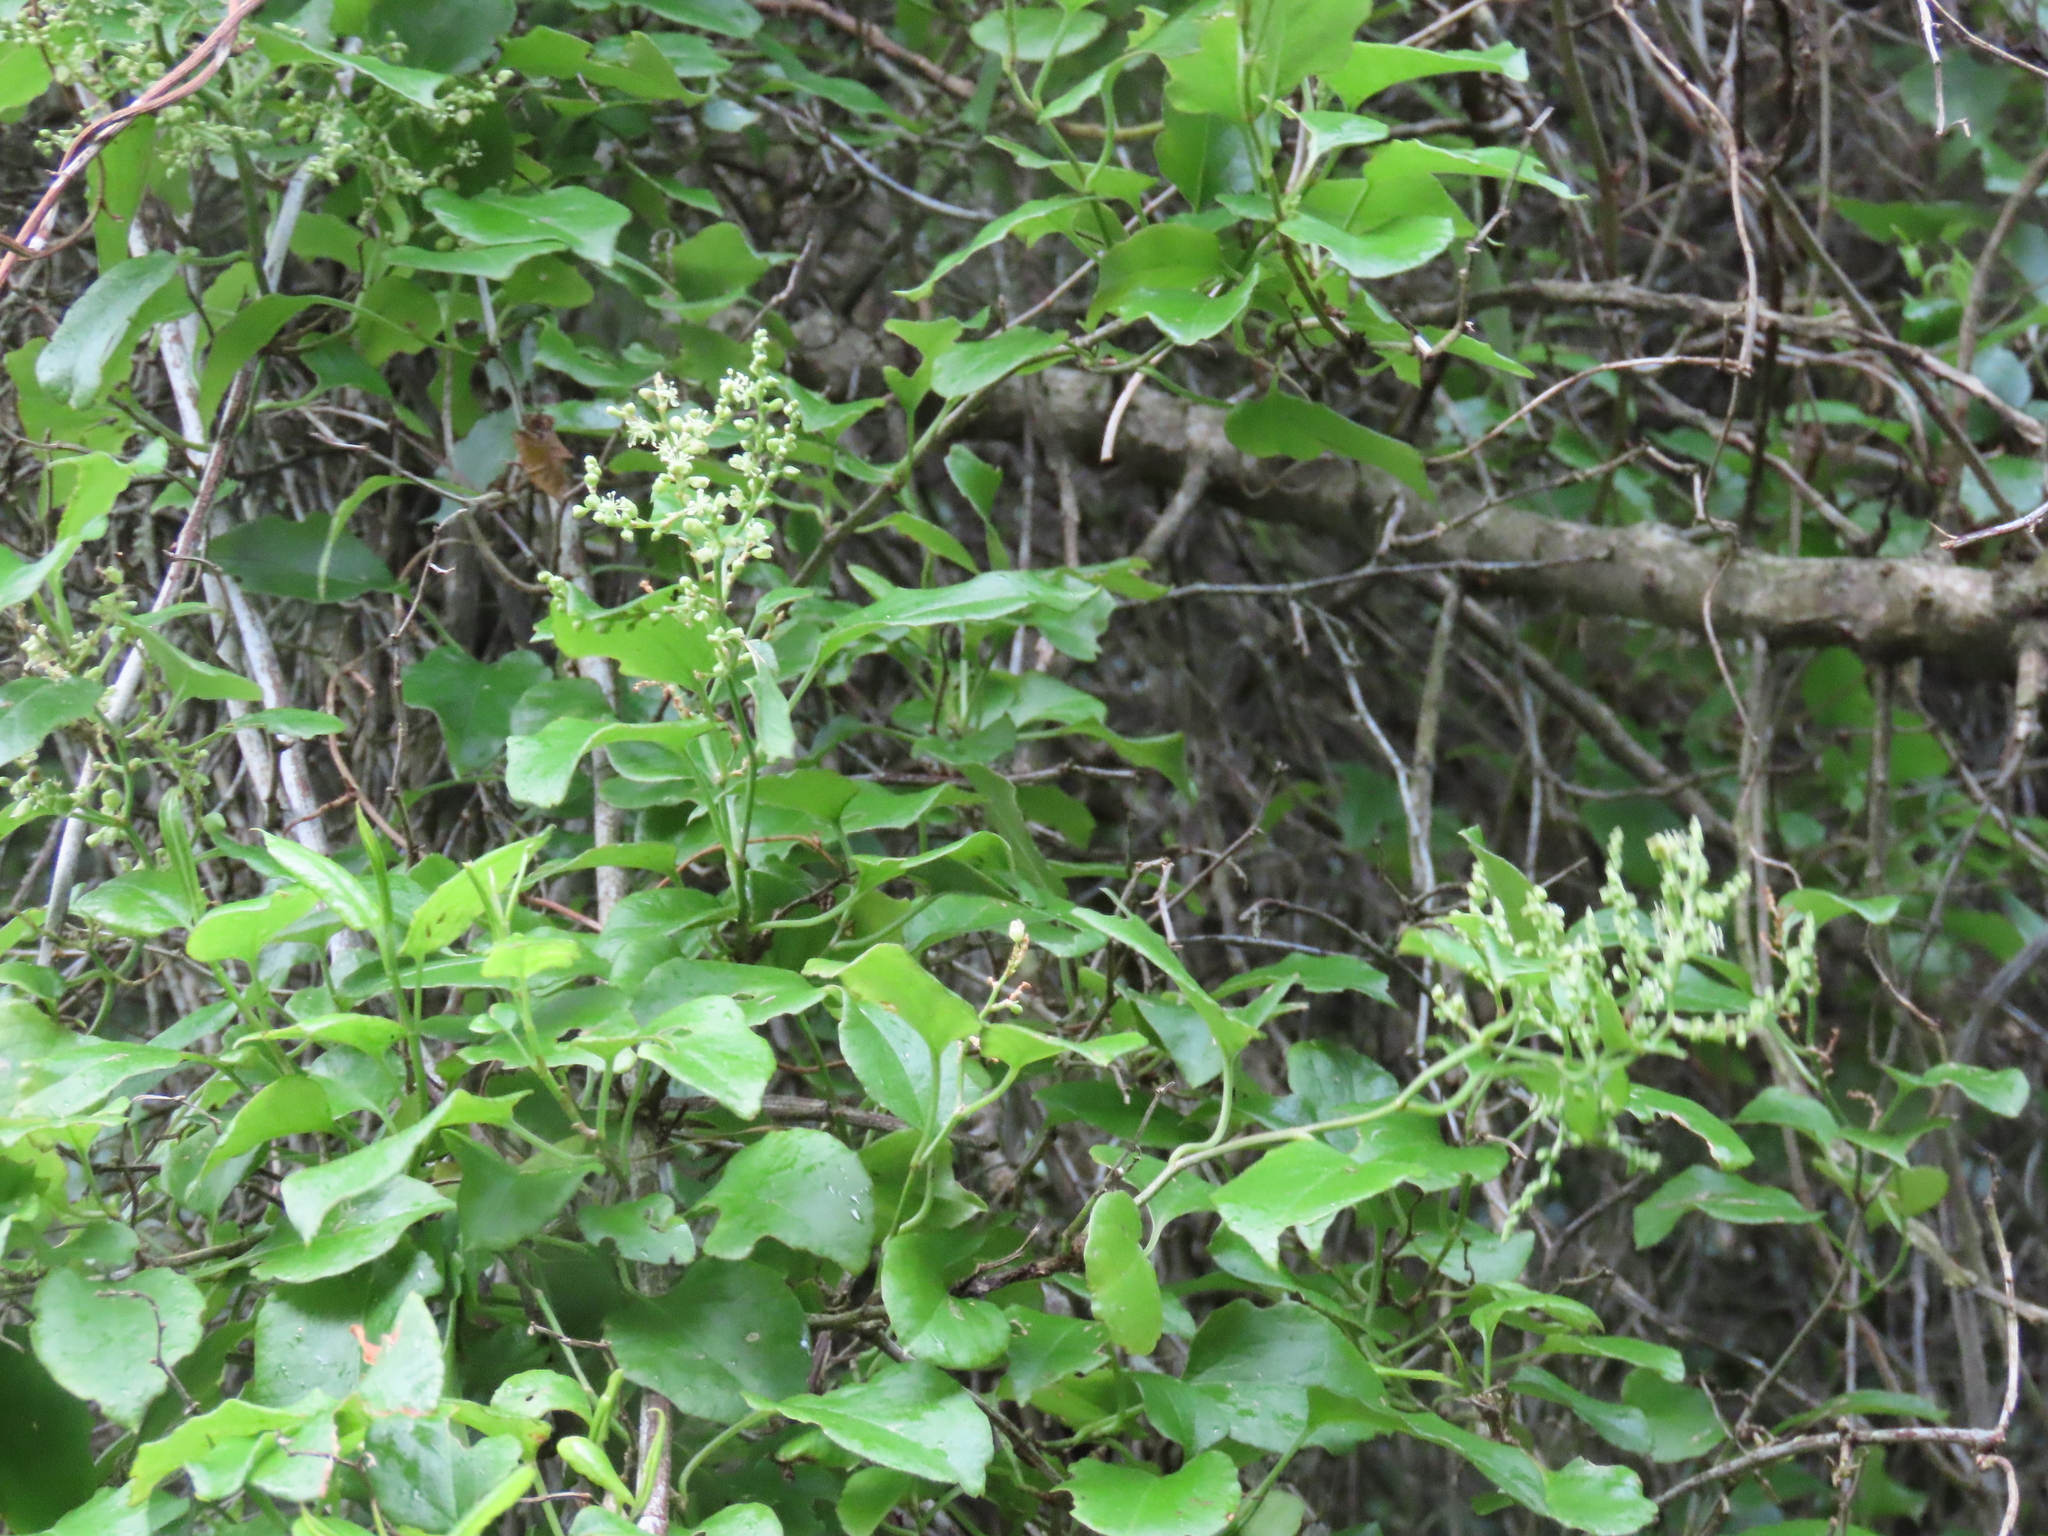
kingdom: Plantae
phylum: Tracheophyta
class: Magnoliopsida
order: Caryophyllales
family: Polygonaceae
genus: Muehlenbeckia
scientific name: Muehlenbeckia australis
